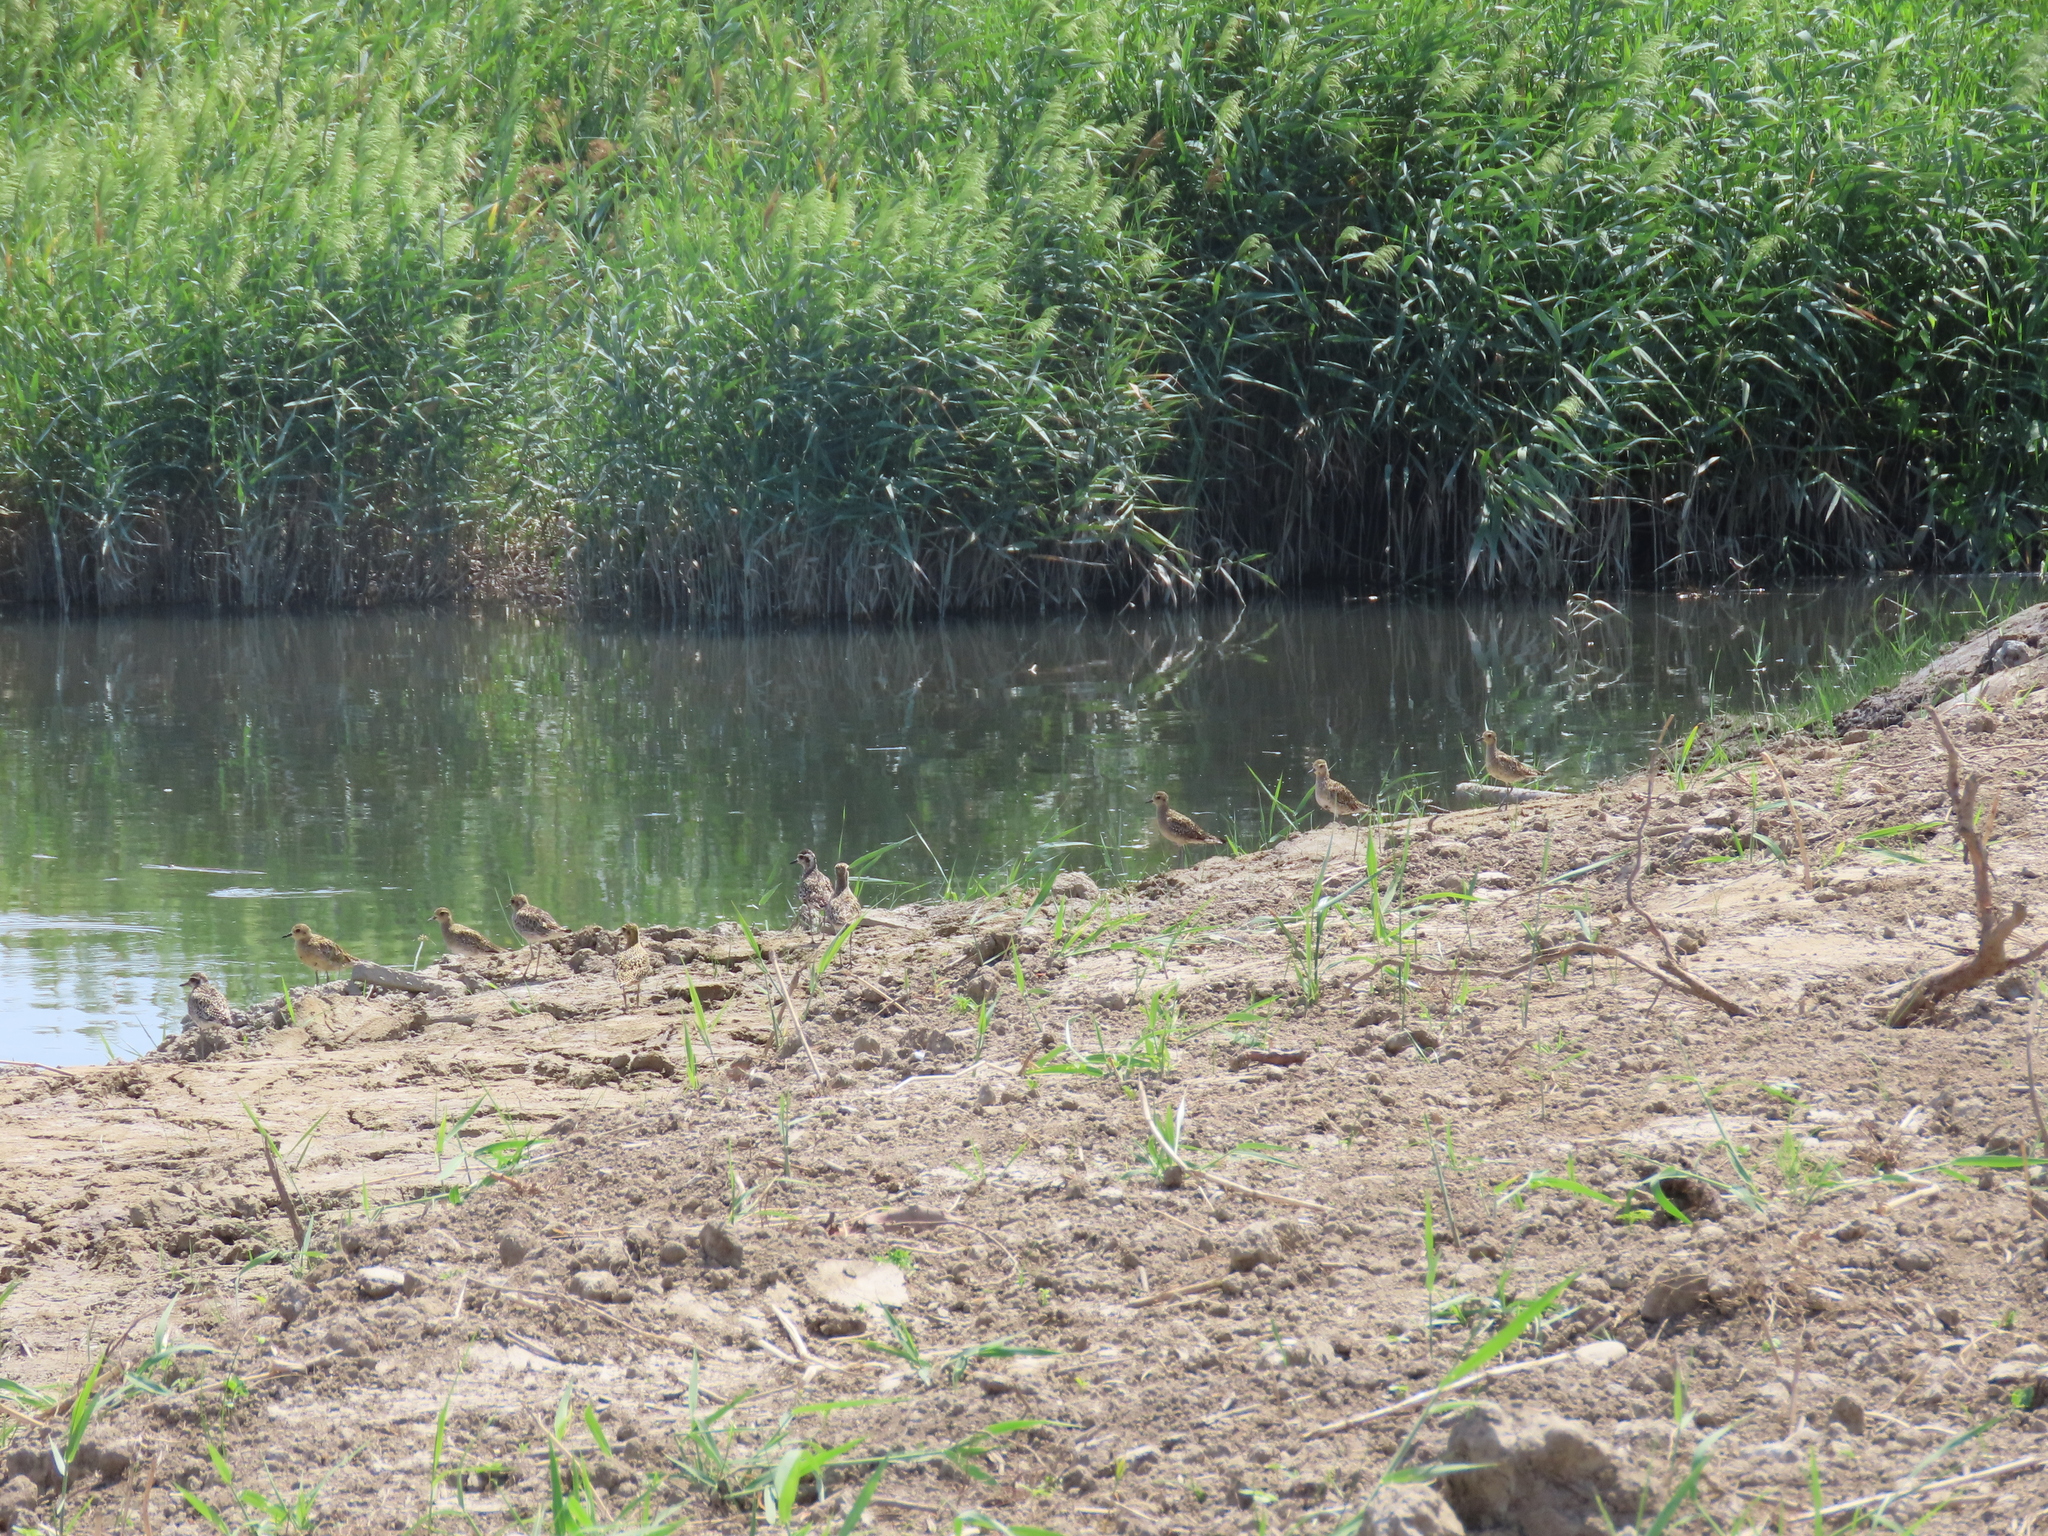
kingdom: Animalia
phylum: Chordata
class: Aves
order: Charadriiformes
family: Charadriidae
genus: Pluvialis
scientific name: Pluvialis fulva
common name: Pacific golden plover
